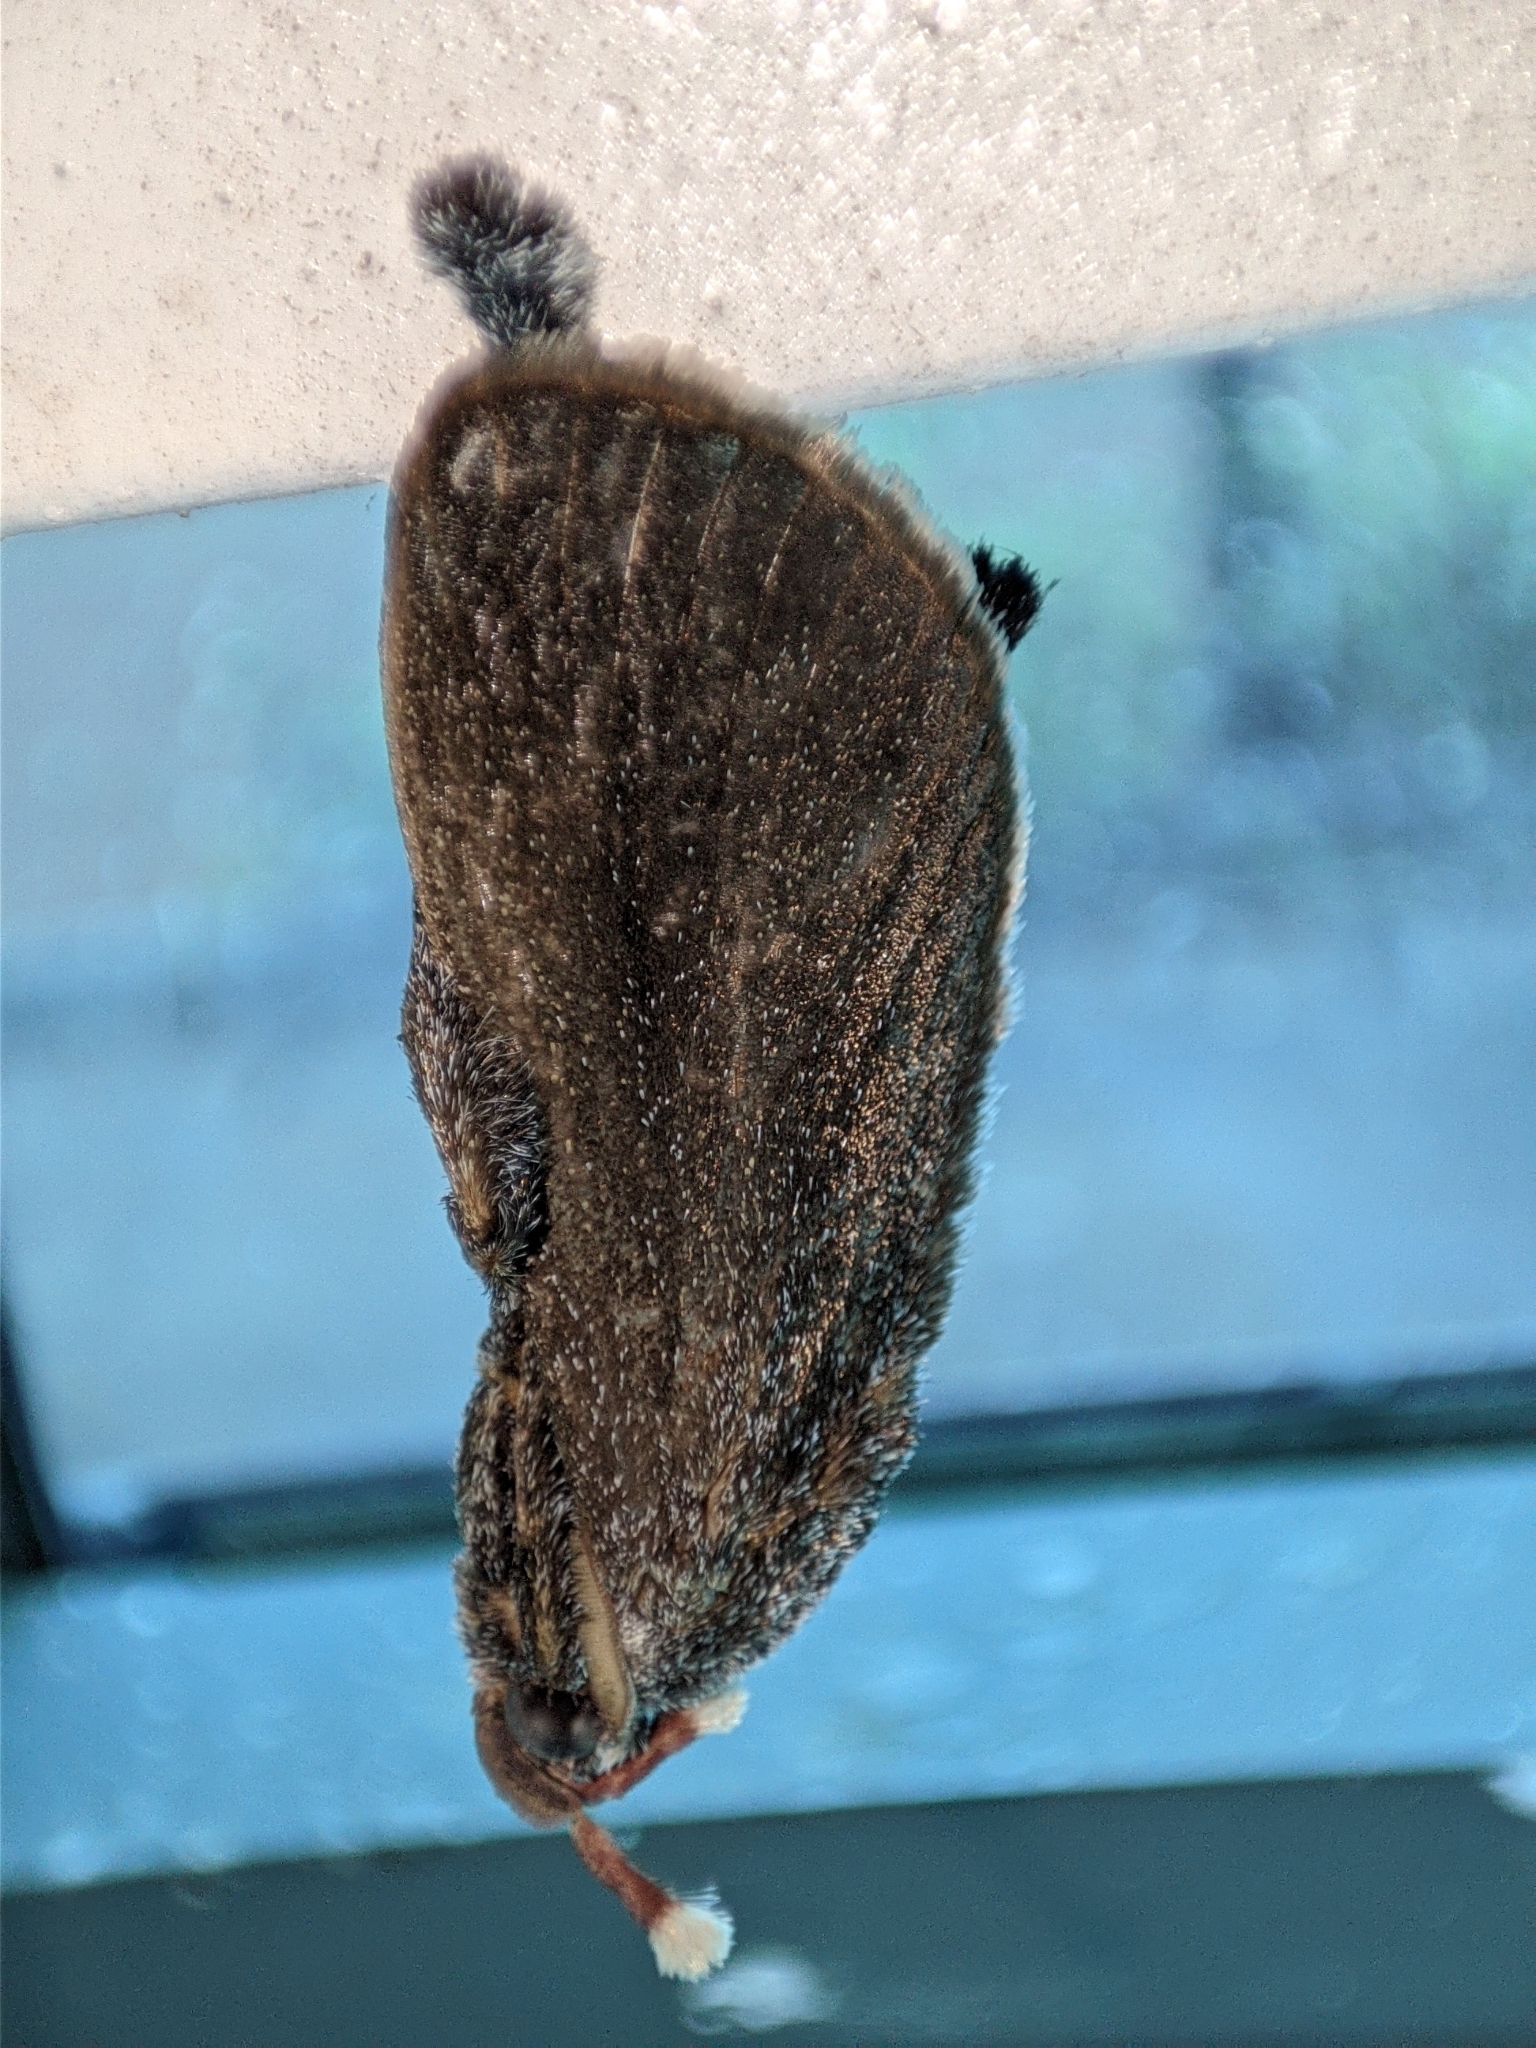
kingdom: Animalia
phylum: Arthropoda
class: Insecta
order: Lepidoptera
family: Limacodidae
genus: Scopelodes
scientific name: Scopelodes kwangtungensis
